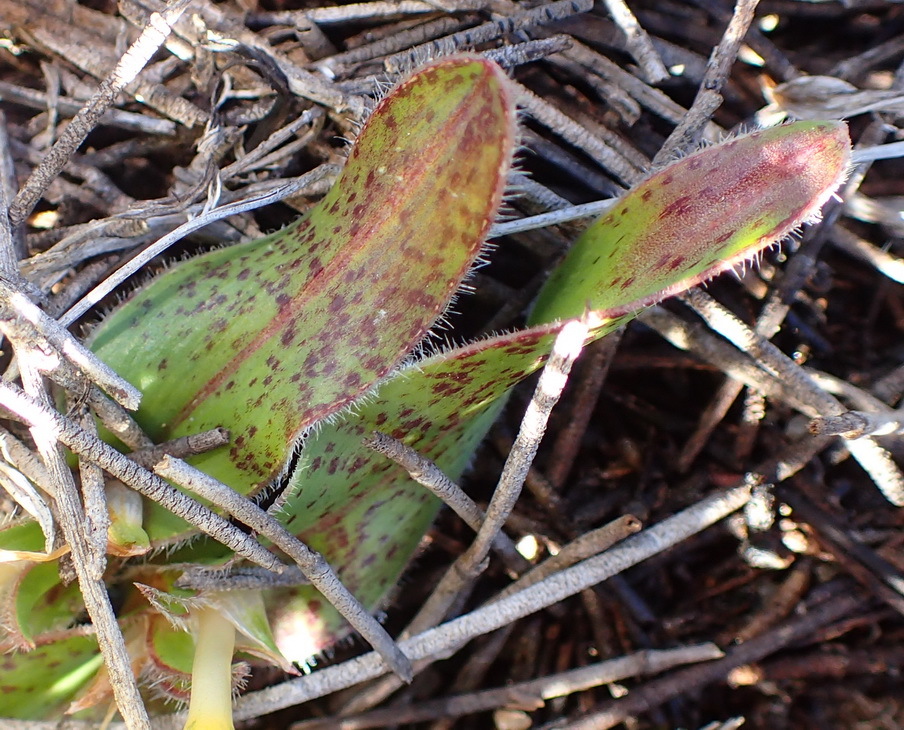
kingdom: Plantae
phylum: Tracheophyta
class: Liliopsida
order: Asparagales
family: Iridaceae
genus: Moraea
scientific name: Moraea luteoalba
